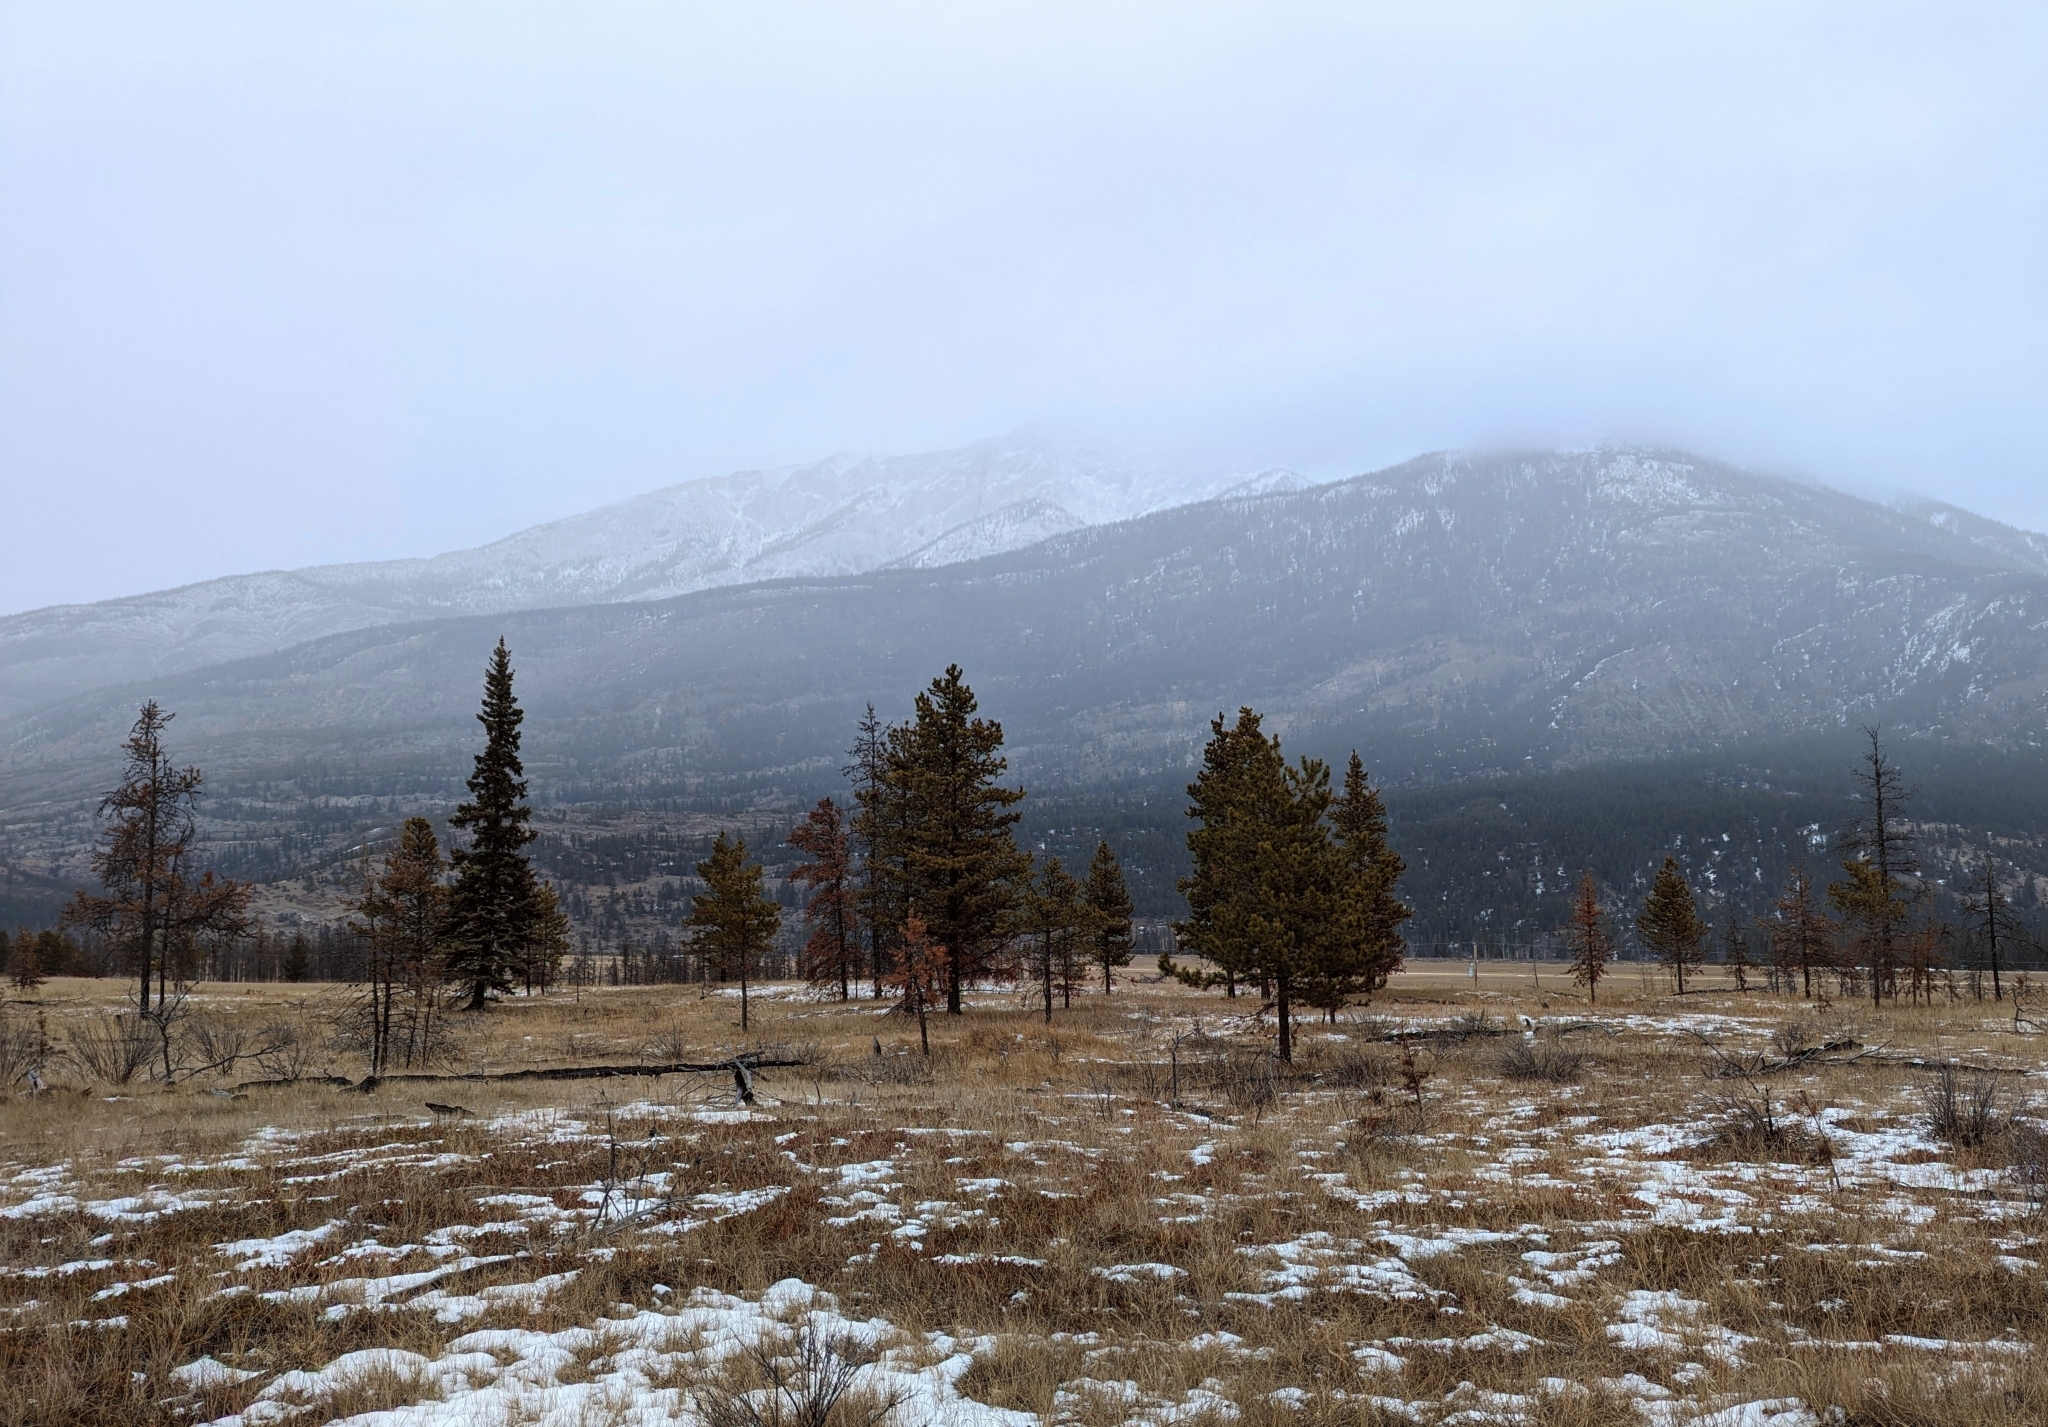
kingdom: Plantae
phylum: Tracheophyta
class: Pinopsida
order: Pinales
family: Pinaceae
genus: Pinus
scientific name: Pinus contorta
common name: Lodgepole pine
